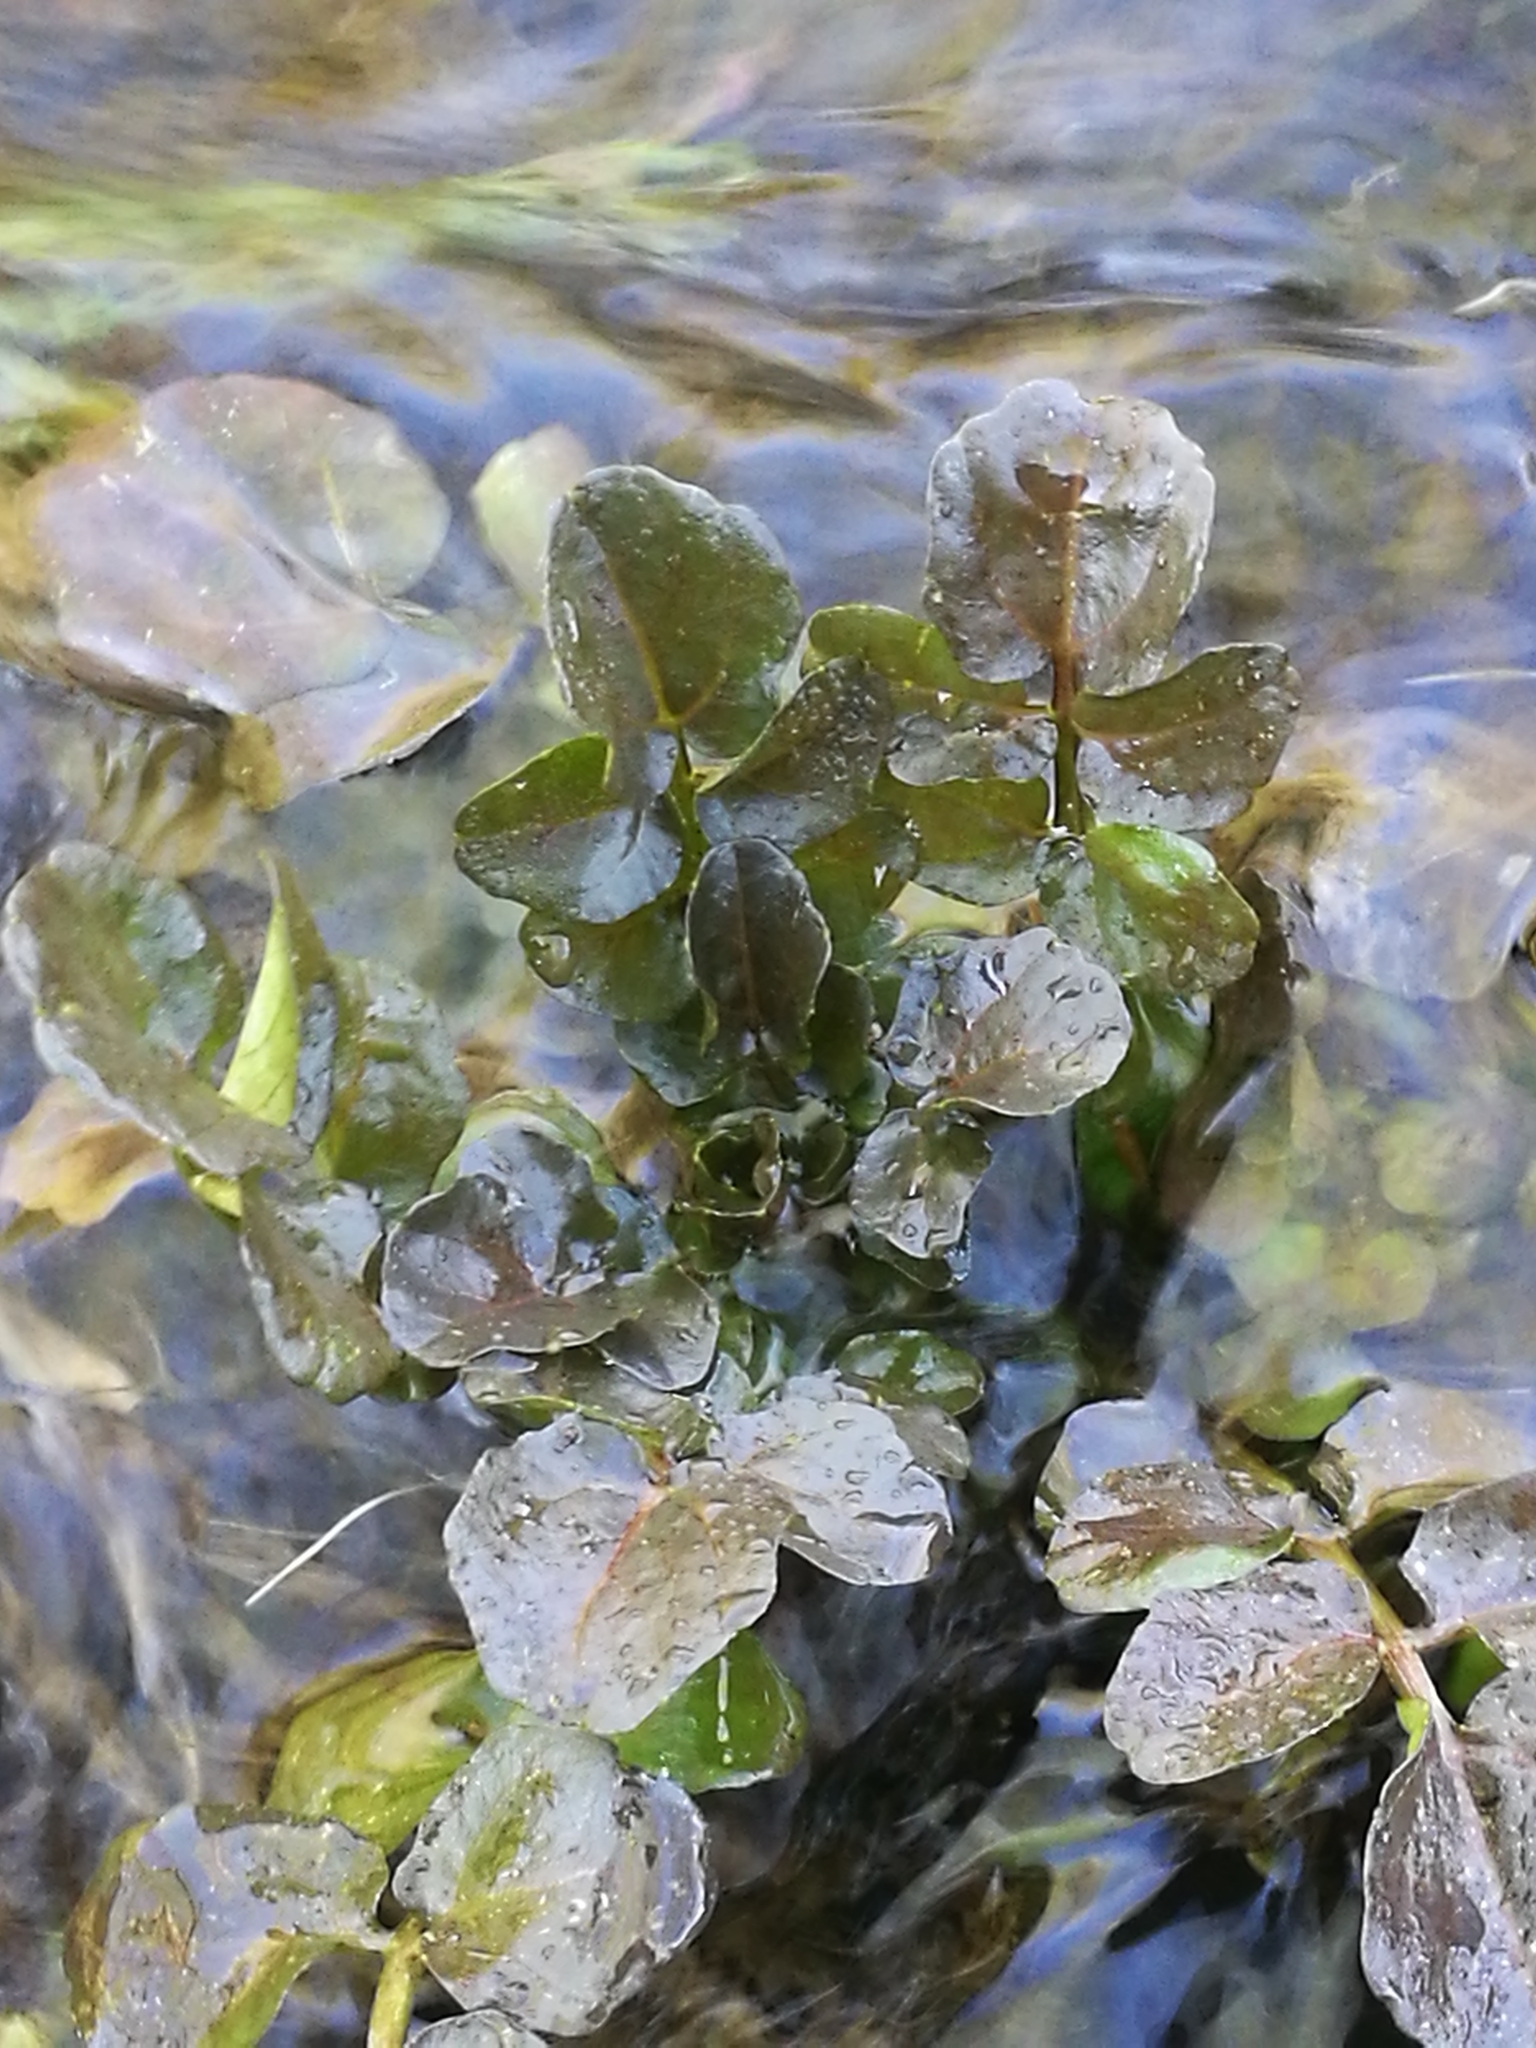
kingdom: Plantae
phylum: Tracheophyta
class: Magnoliopsida
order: Brassicales
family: Brassicaceae
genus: Nasturtium
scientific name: Nasturtium officinale
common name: Watercress
